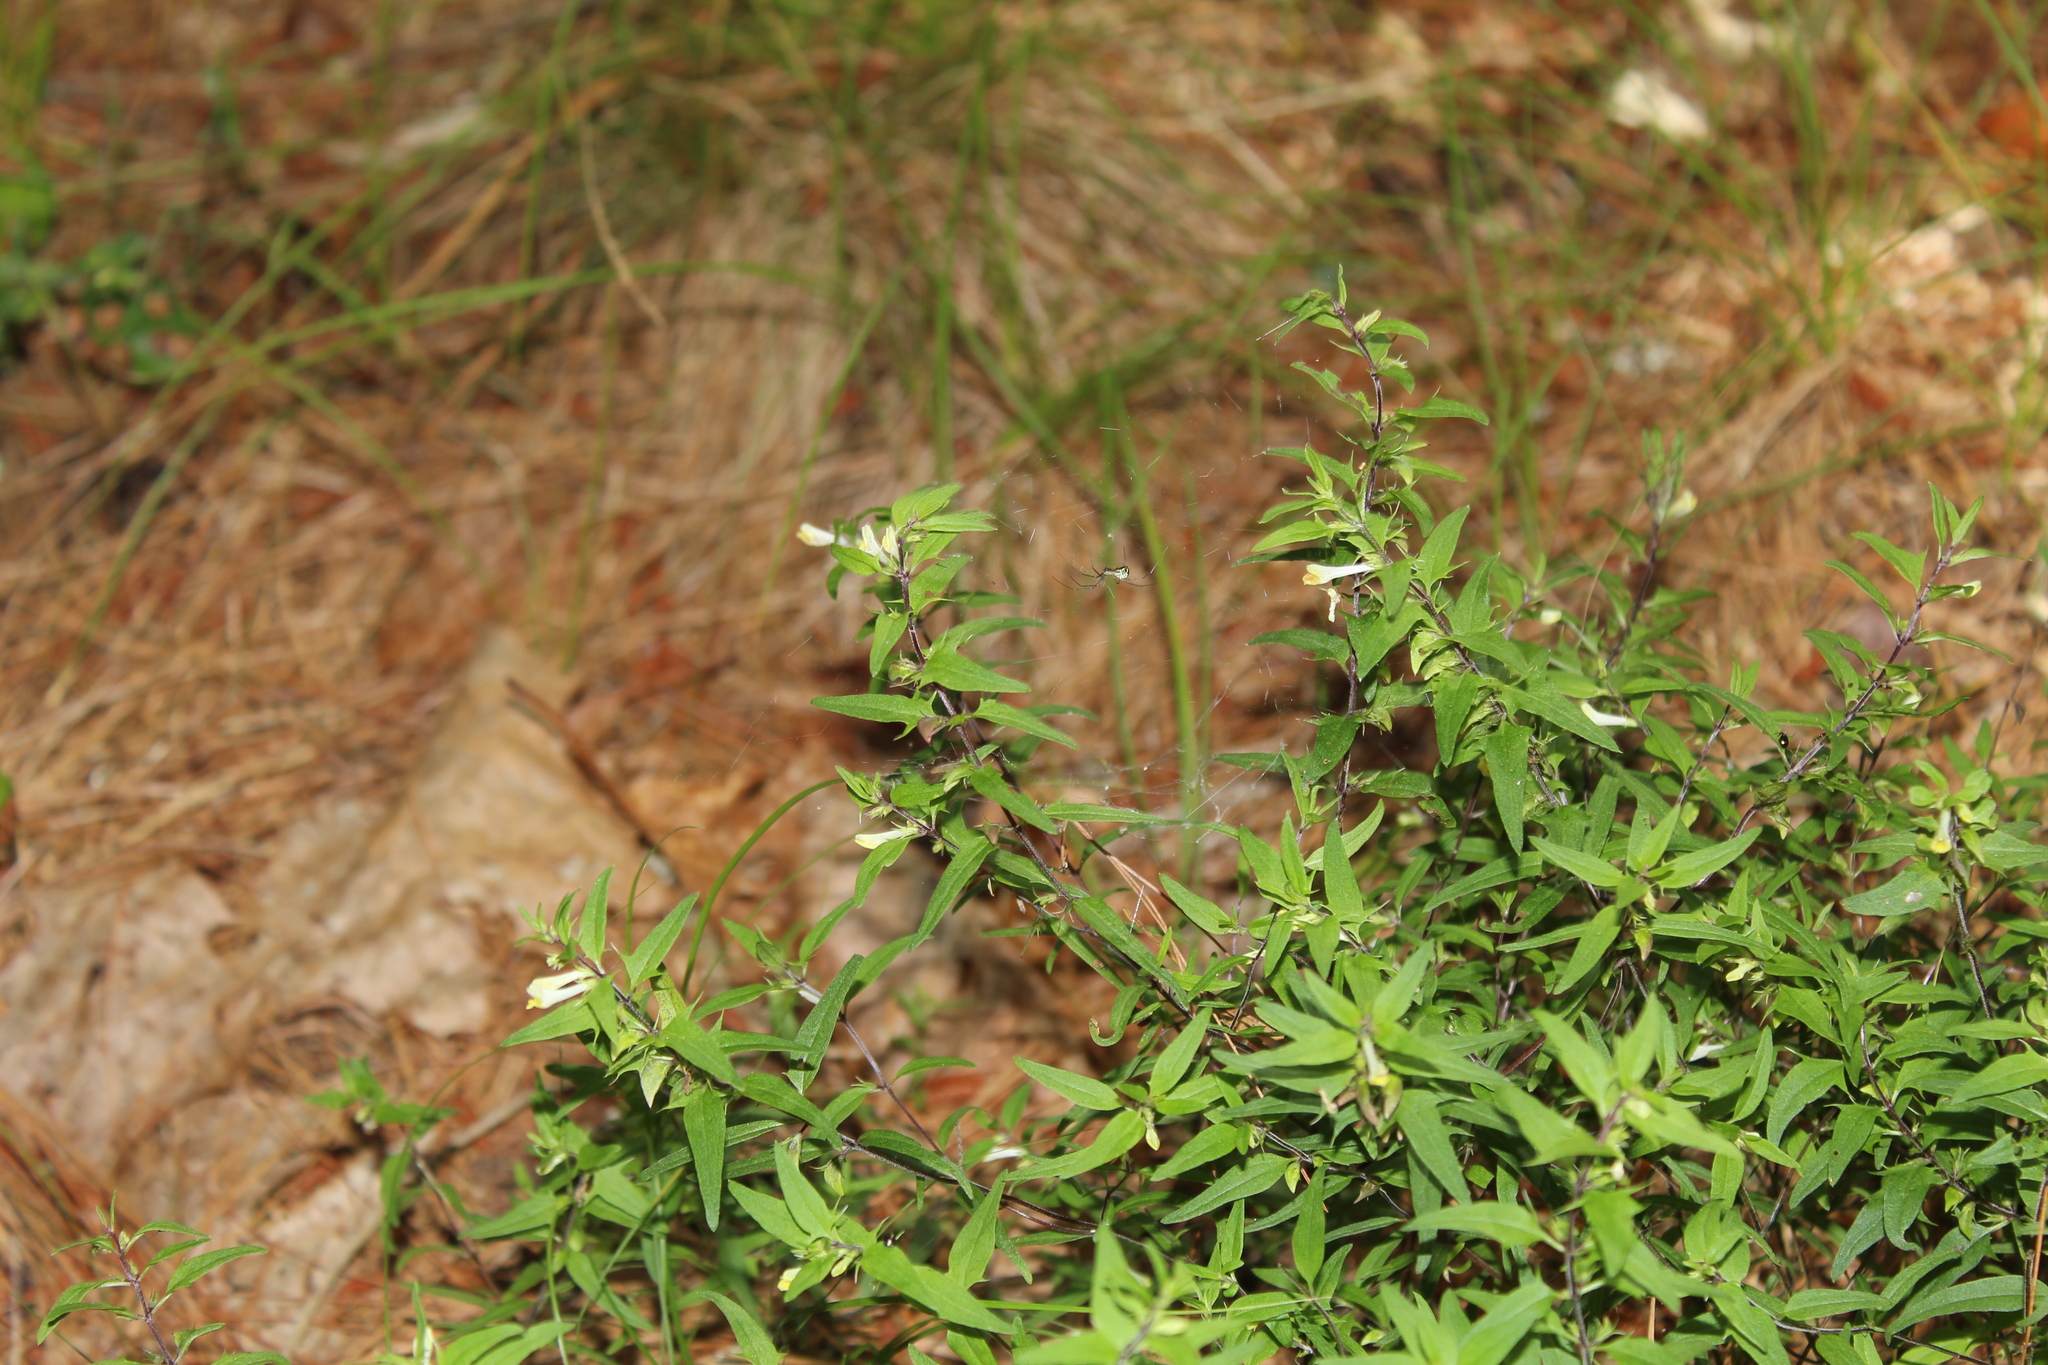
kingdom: Plantae
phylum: Tracheophyta
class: Magnoliopsida
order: Lamiales
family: Orobanchaceae
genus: Melampyrum
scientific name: Melampyrum lineare
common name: American cow-wheat
